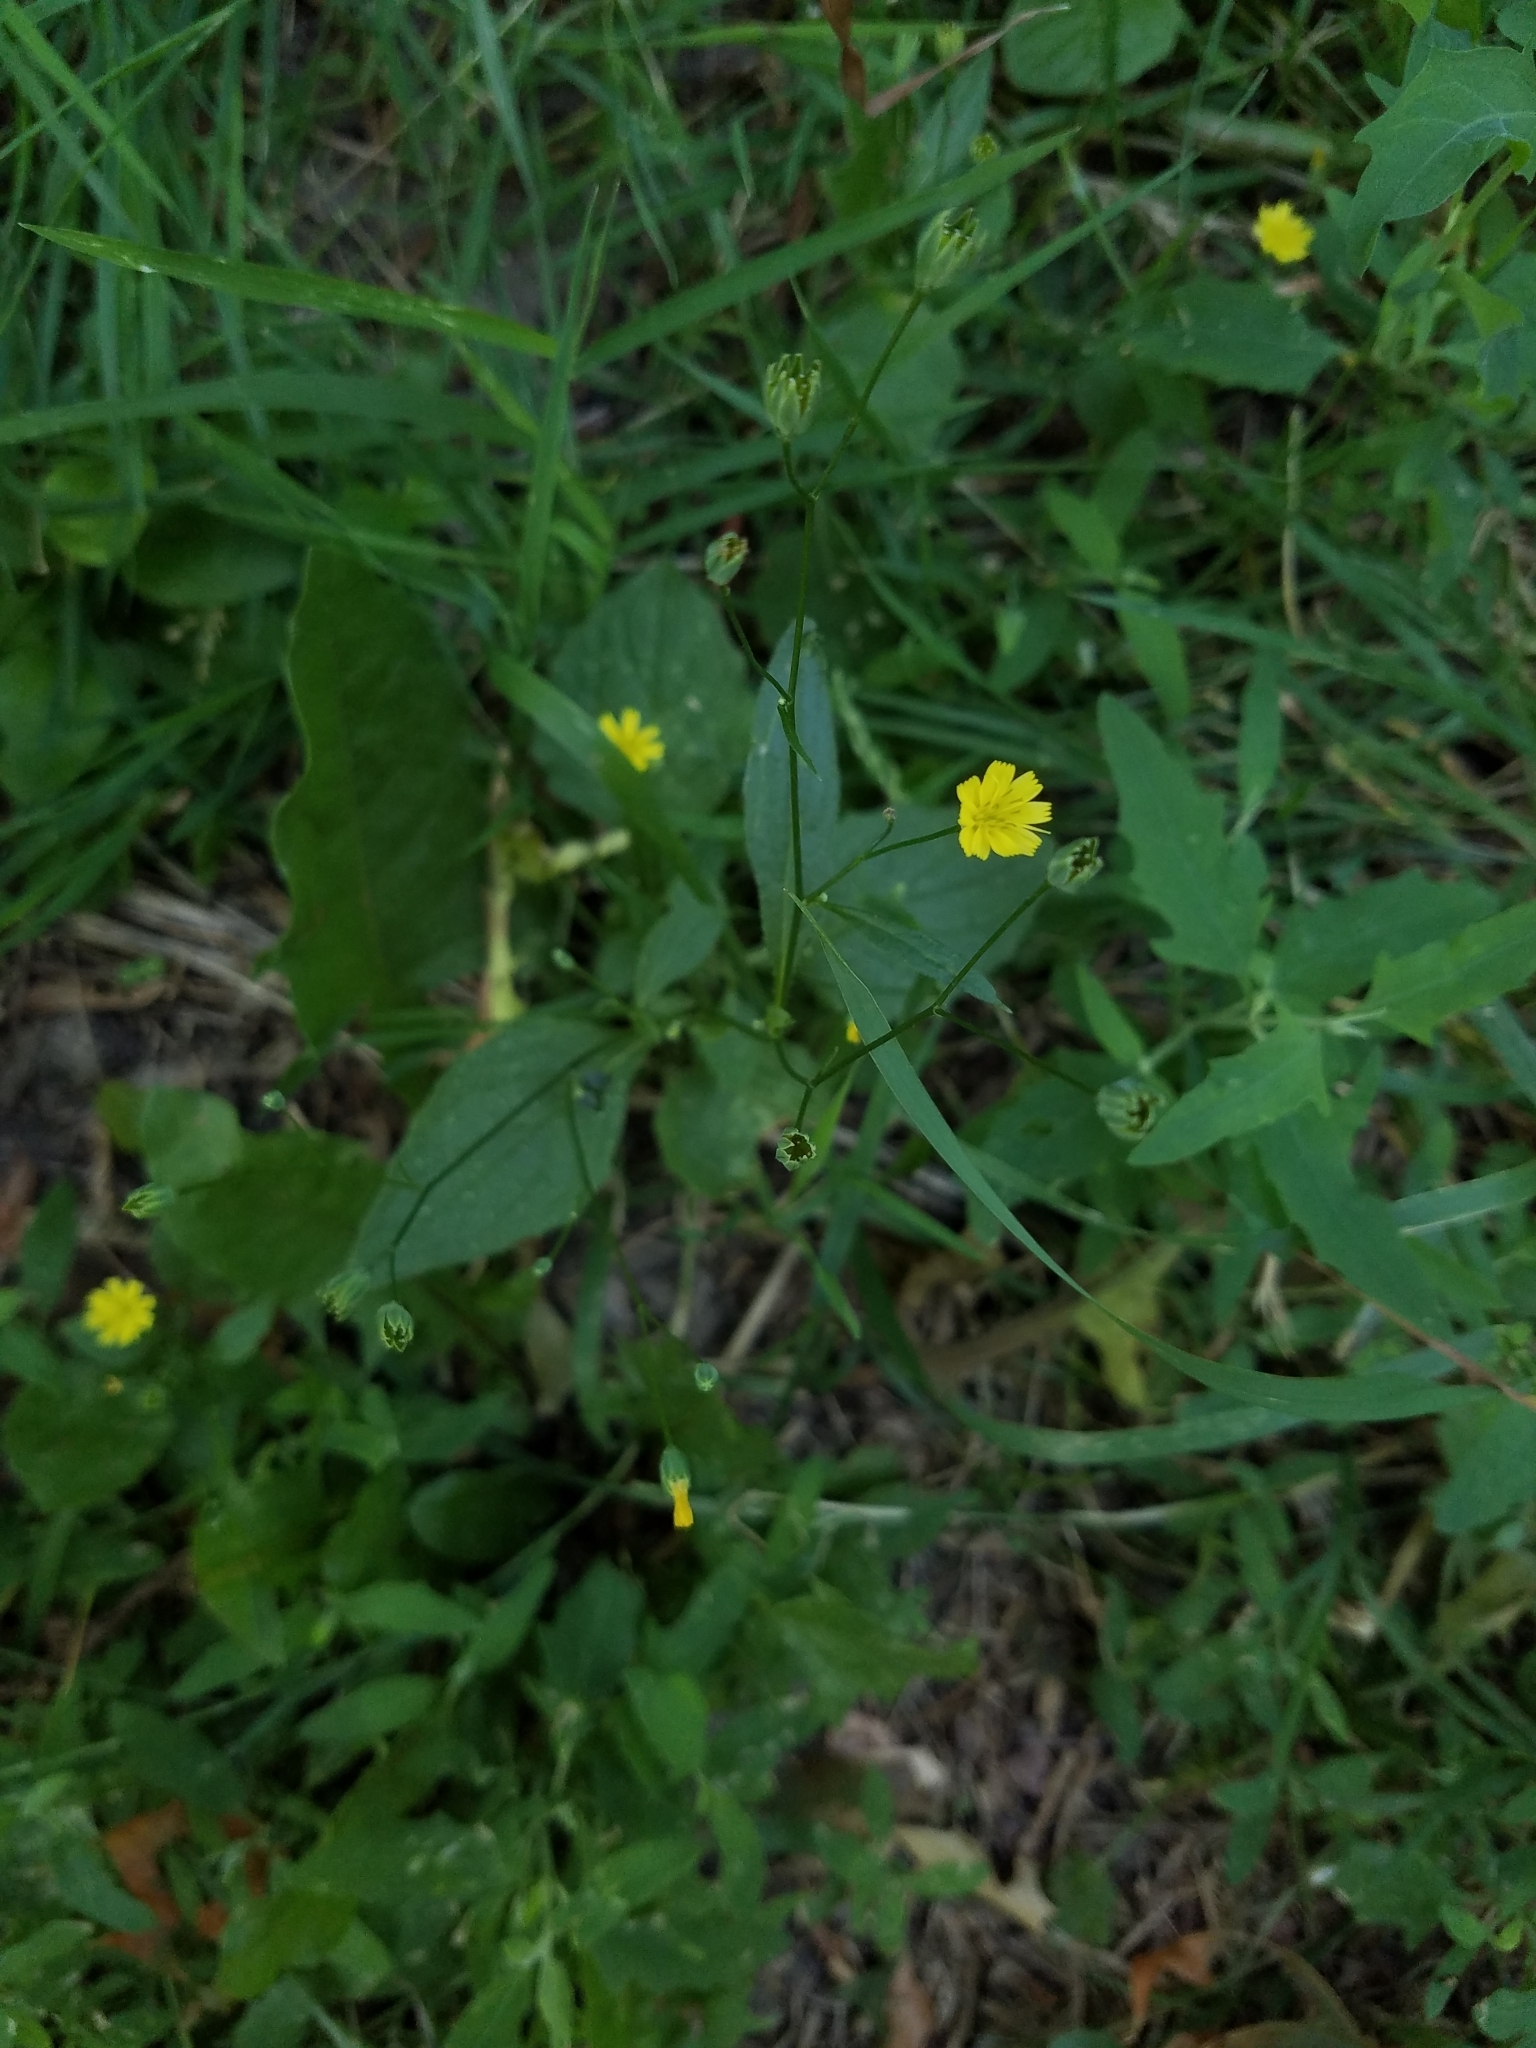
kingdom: Plantae
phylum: Tracheophyta
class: Magnoliopsida
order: Asterales
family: Asteraceae
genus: Lapsana
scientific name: Lapsana communis
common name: Nipplewort
